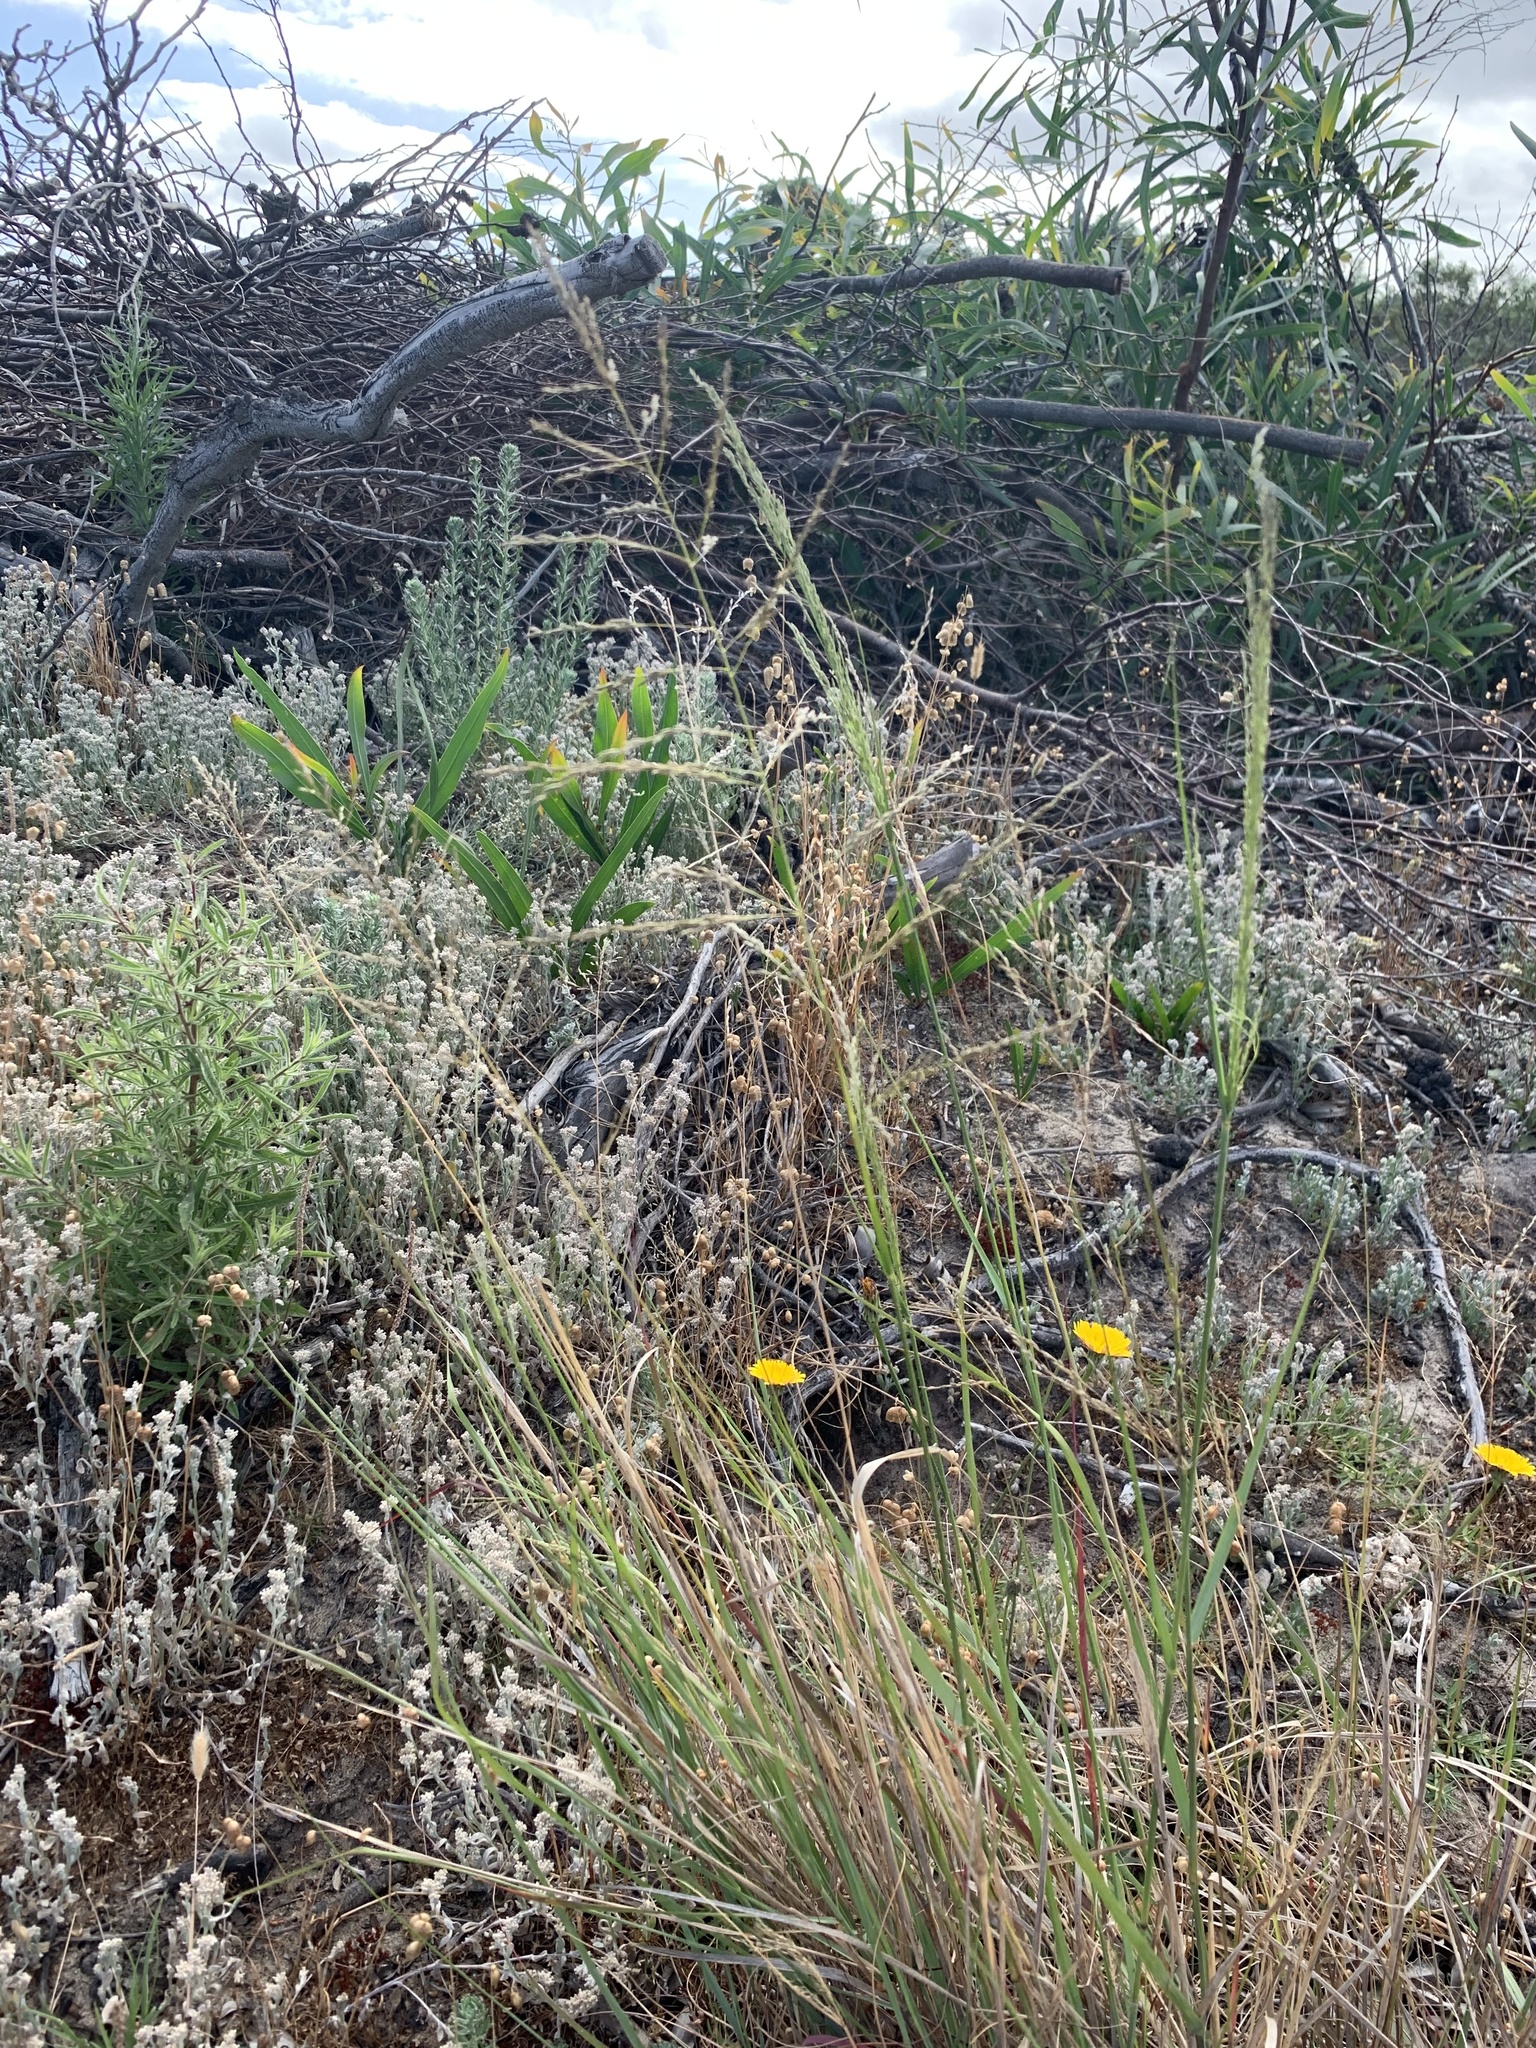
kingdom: Plantae
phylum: Tracheophyta
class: Liliopsida
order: Poales
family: Poaceae
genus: Eragrostis
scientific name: Eragrostis curvula
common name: African love-grass
